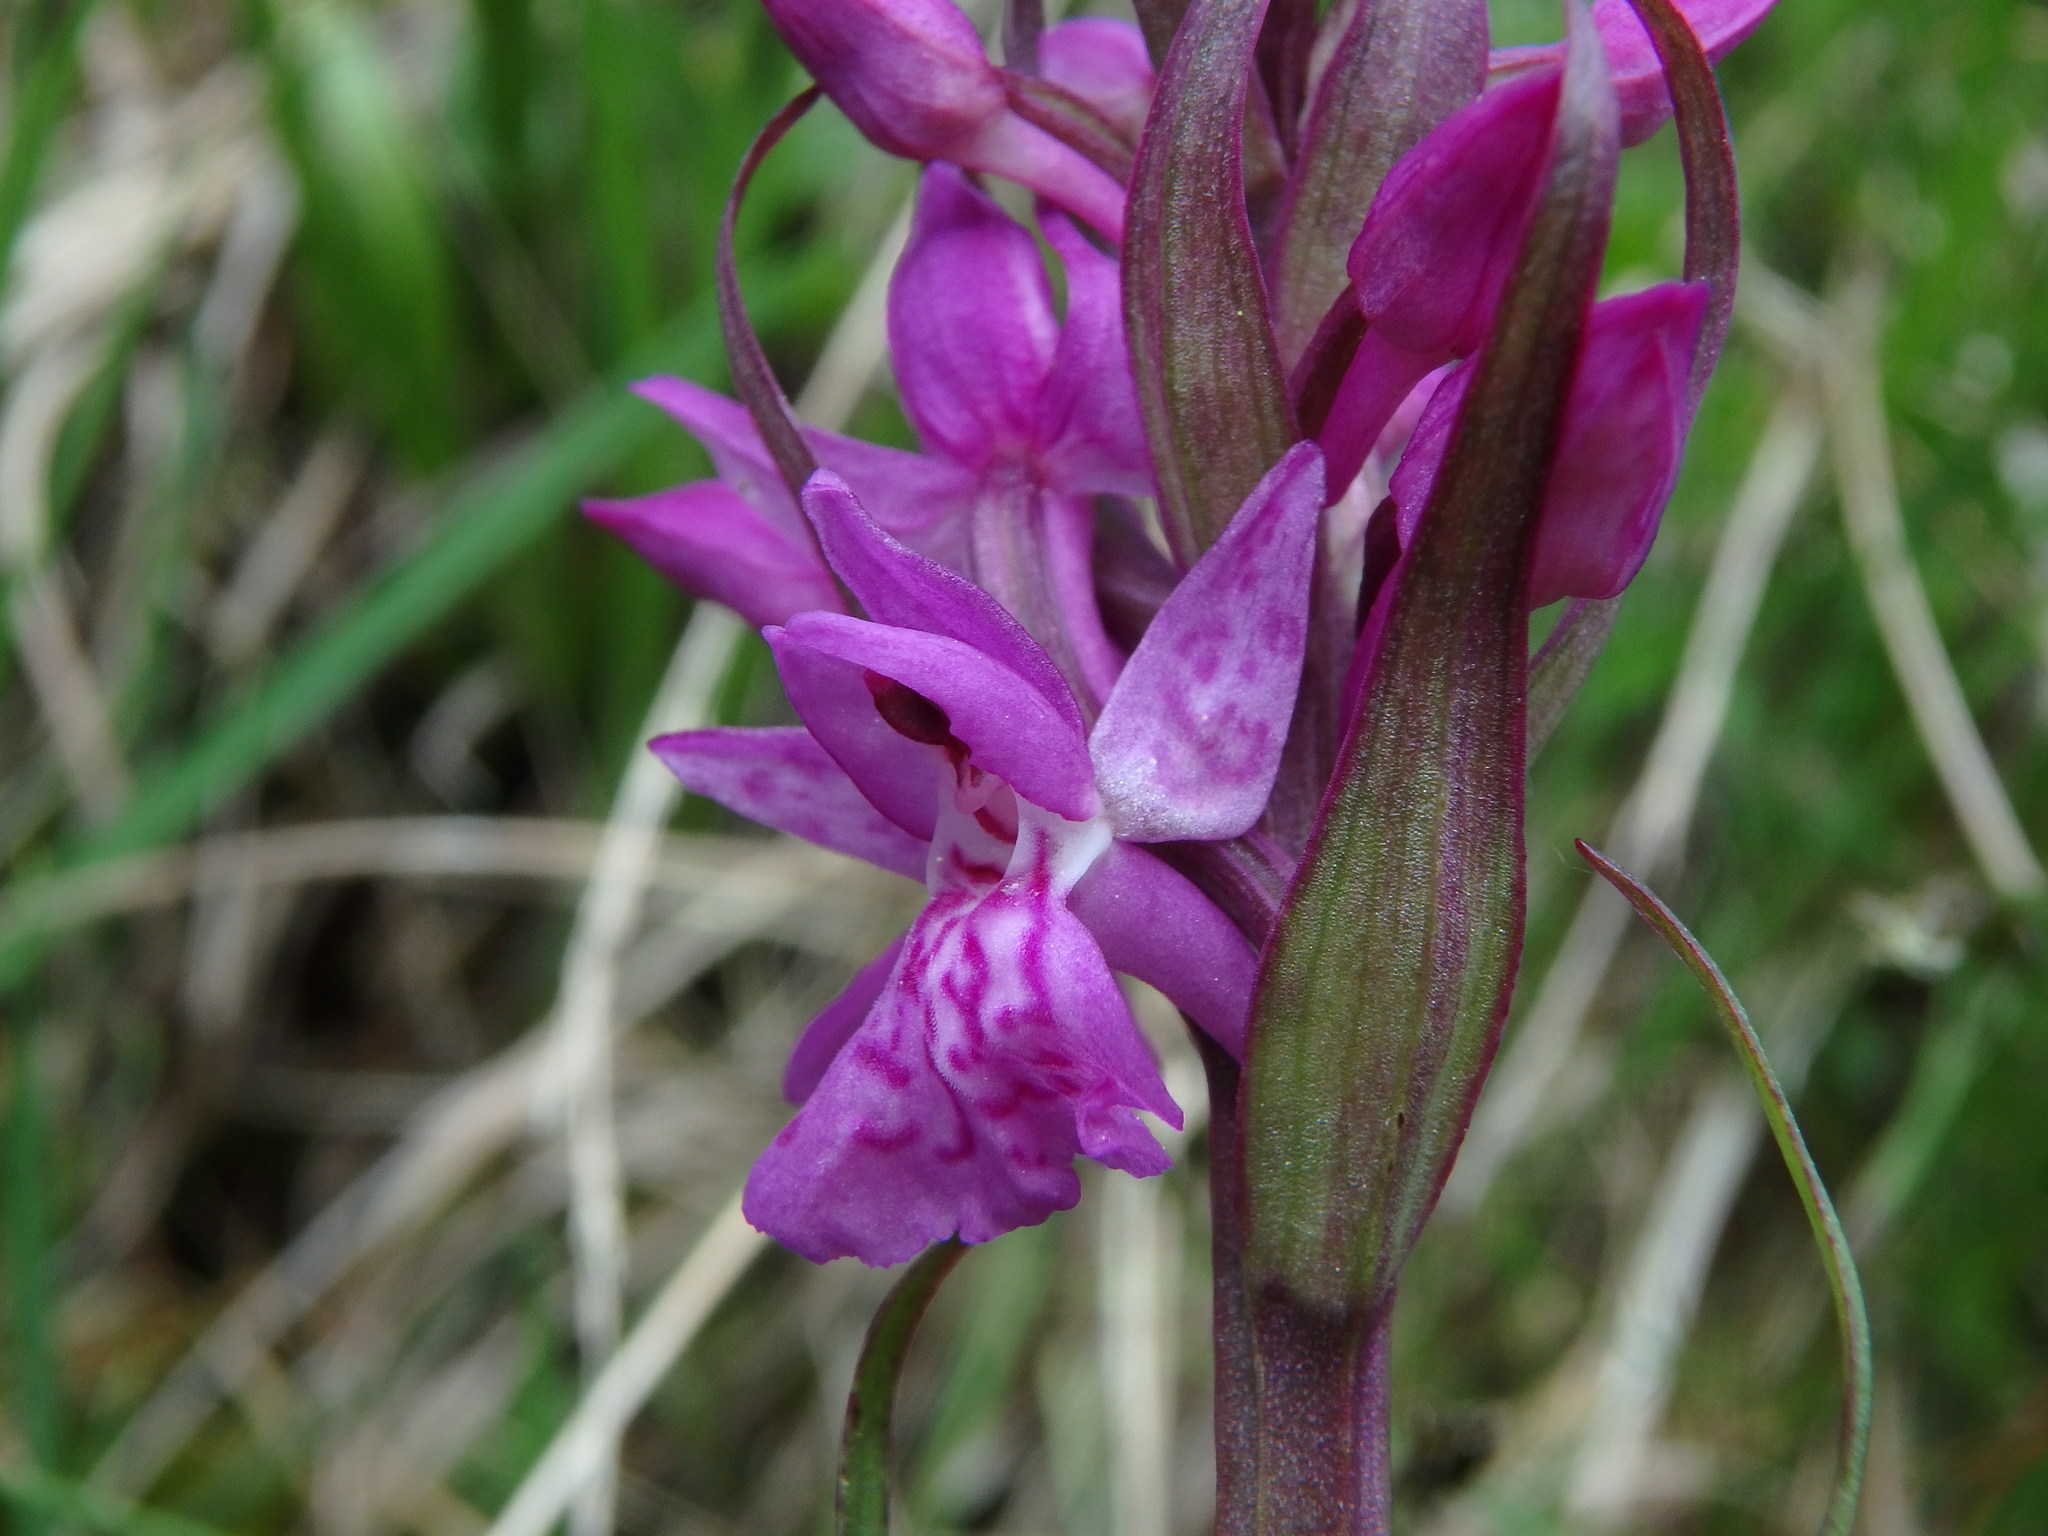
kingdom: Plantae
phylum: Tracheophyta
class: Liliopsida
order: Asparagales
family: Orchidaceae
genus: Dactylorhiza
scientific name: Dactylorhiza majalis
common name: Marsh orchid
